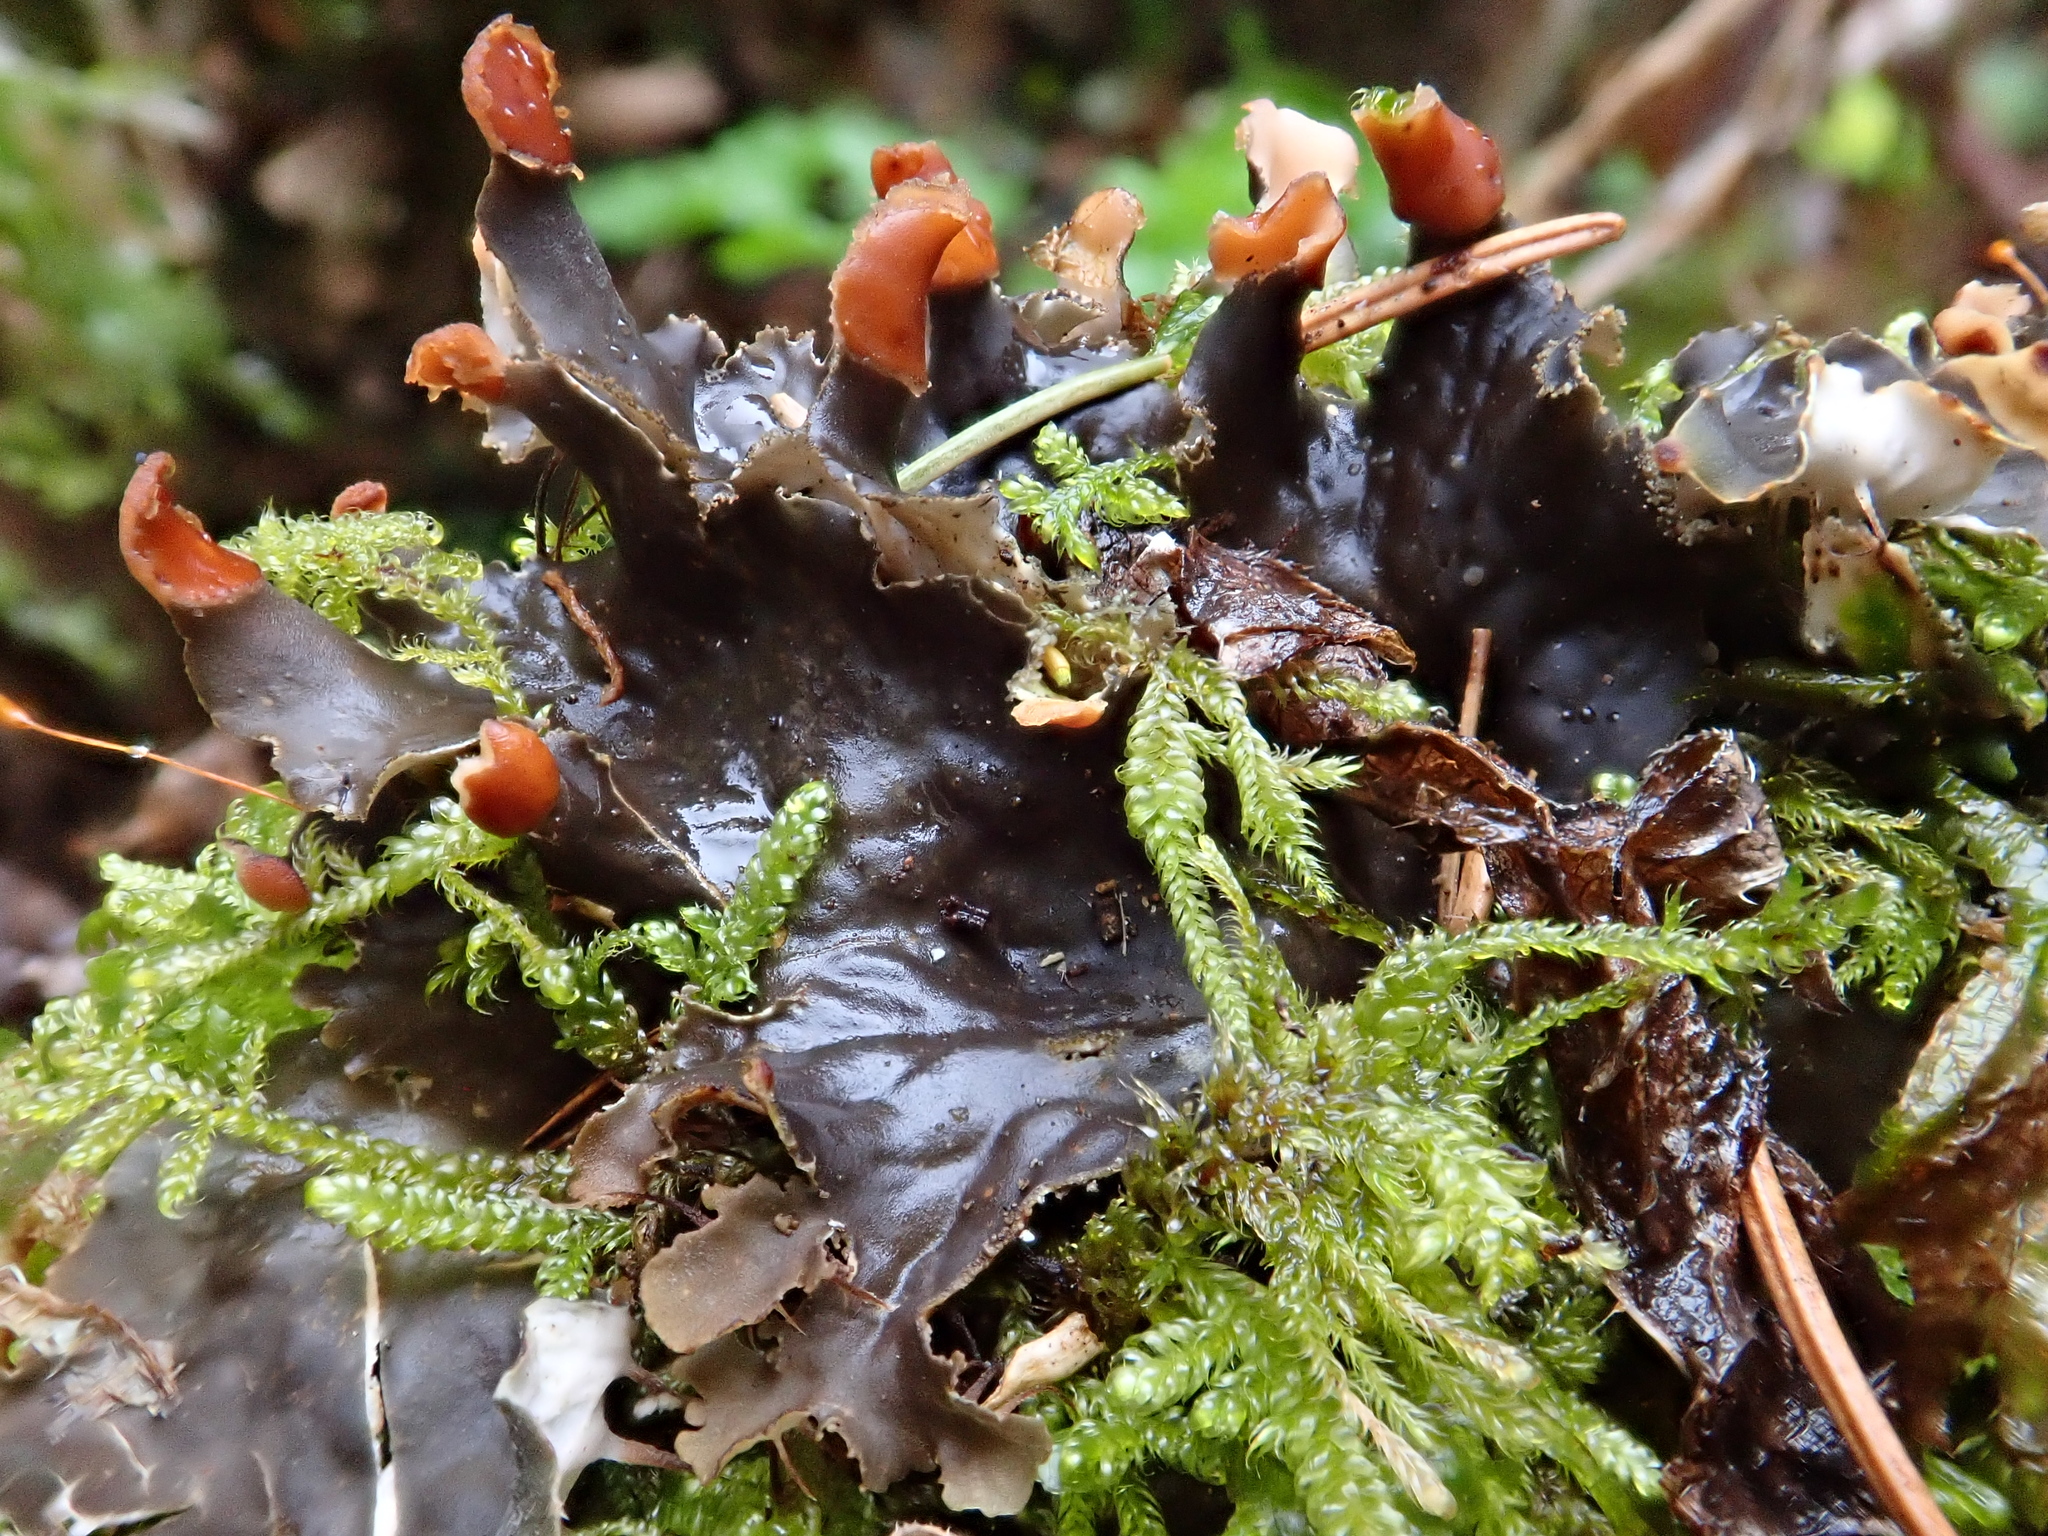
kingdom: Fungi
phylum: Ascomycota
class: Lecanoromycetes
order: Peltigerales
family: Peltigeraceae
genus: Peltigera
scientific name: Peltigera praetextata
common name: Scaly dog-lichen
